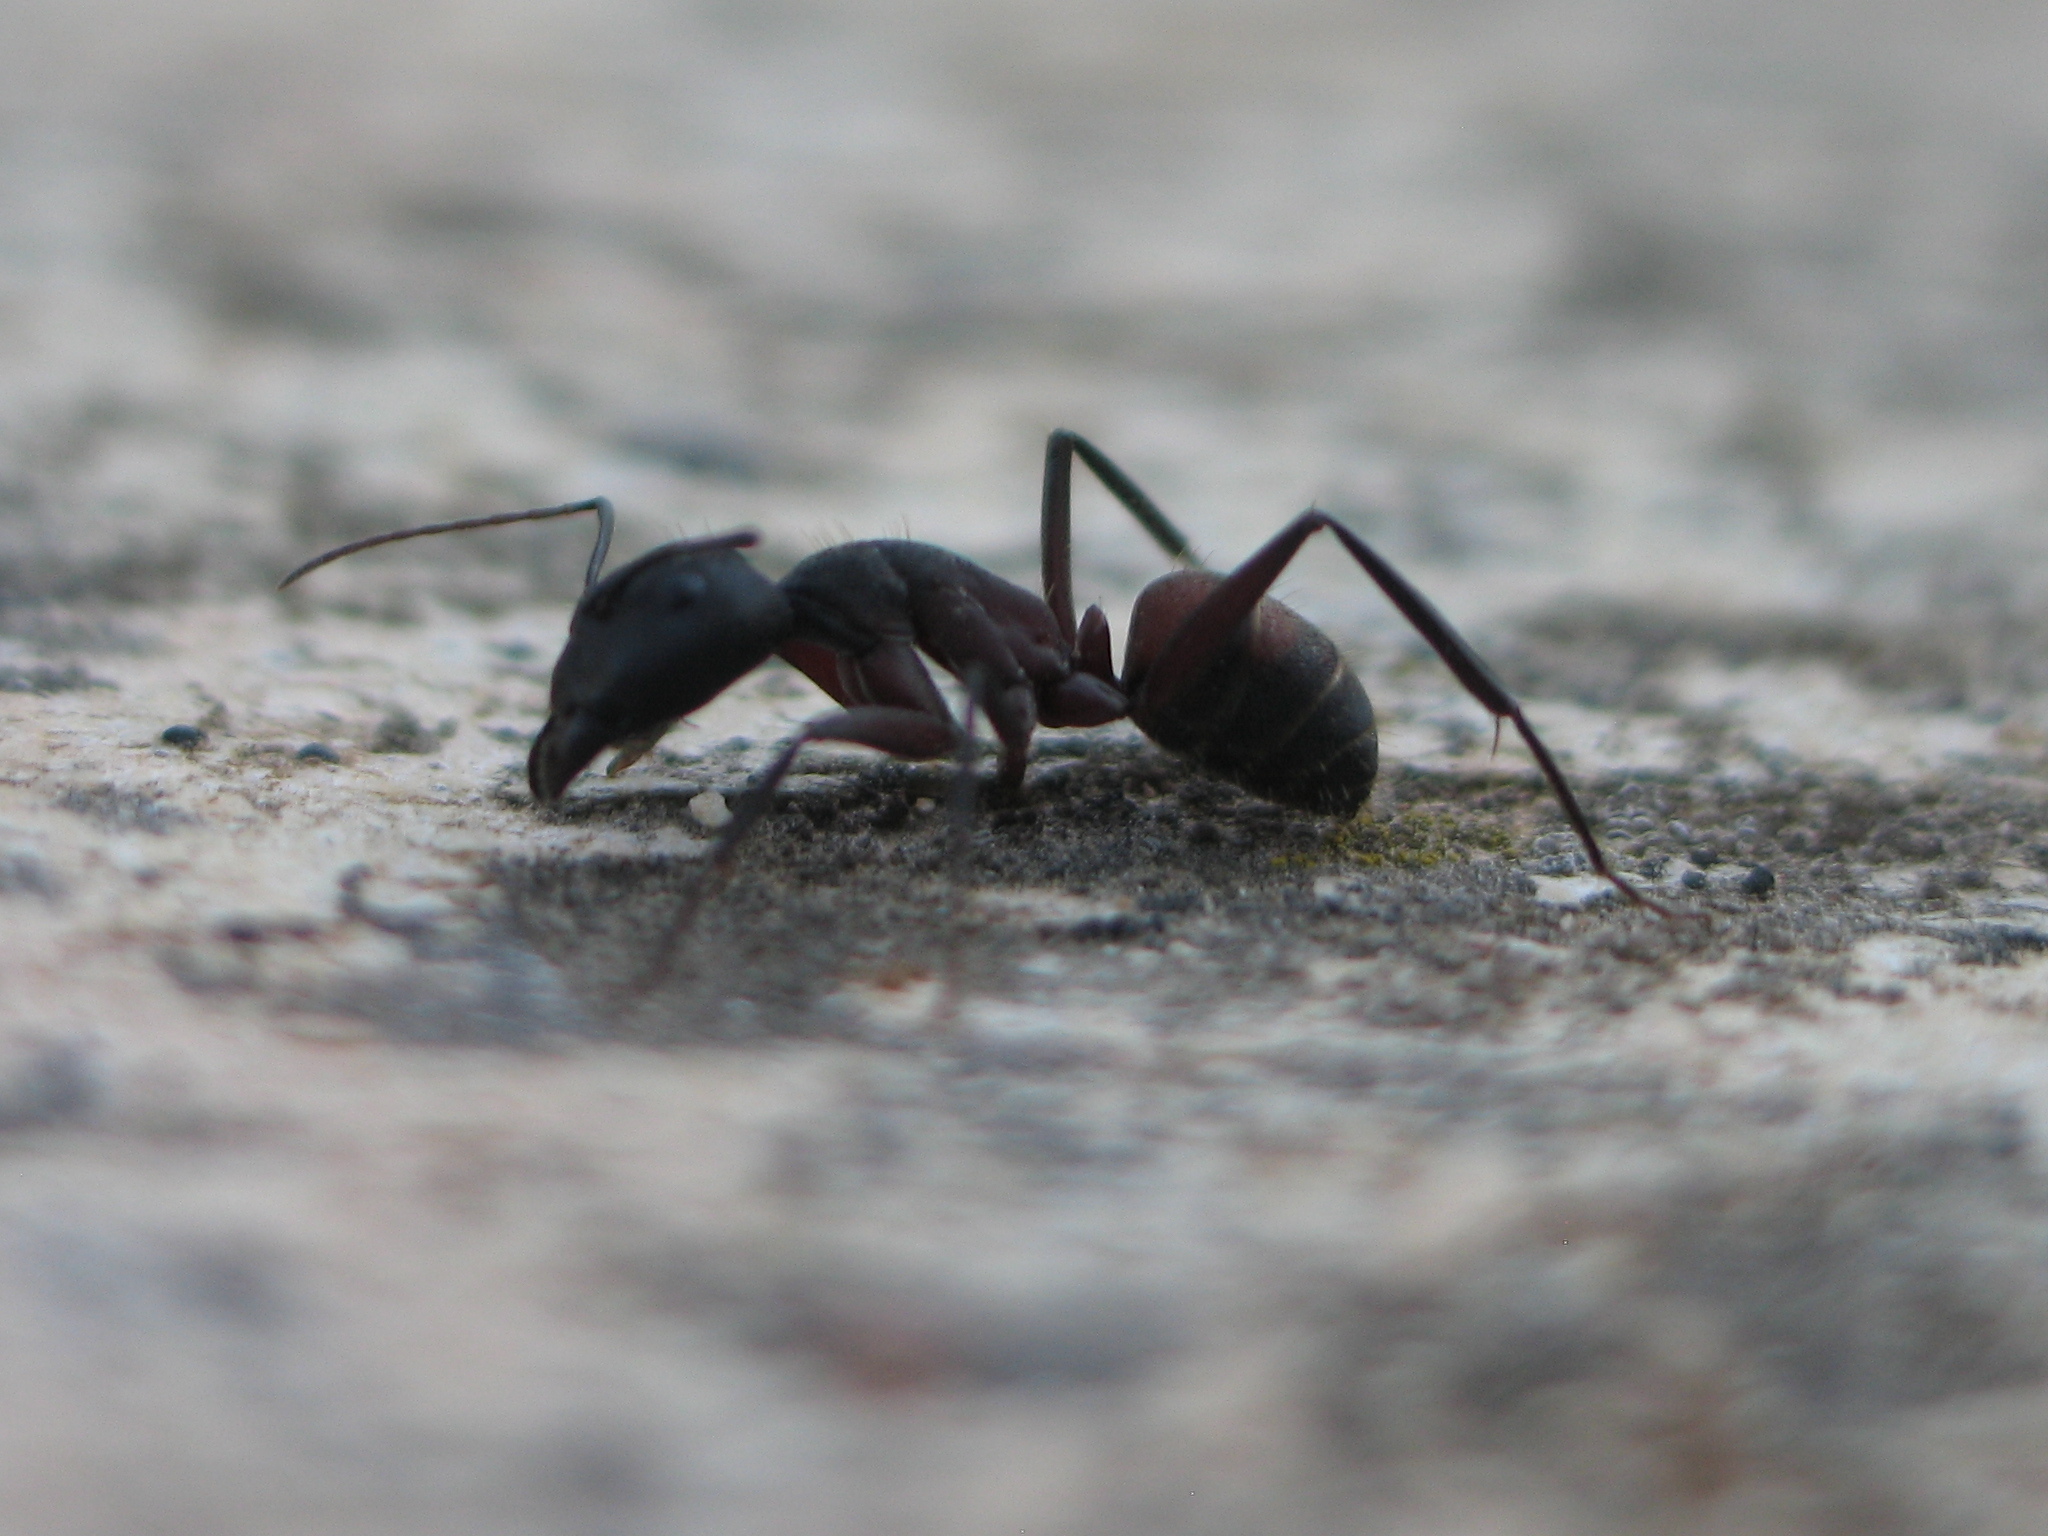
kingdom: Animalia
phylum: Arthropoda
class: Insecta
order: Hymenoptera
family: Formicidae
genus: Camponotus
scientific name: Camponotus cruentatus
